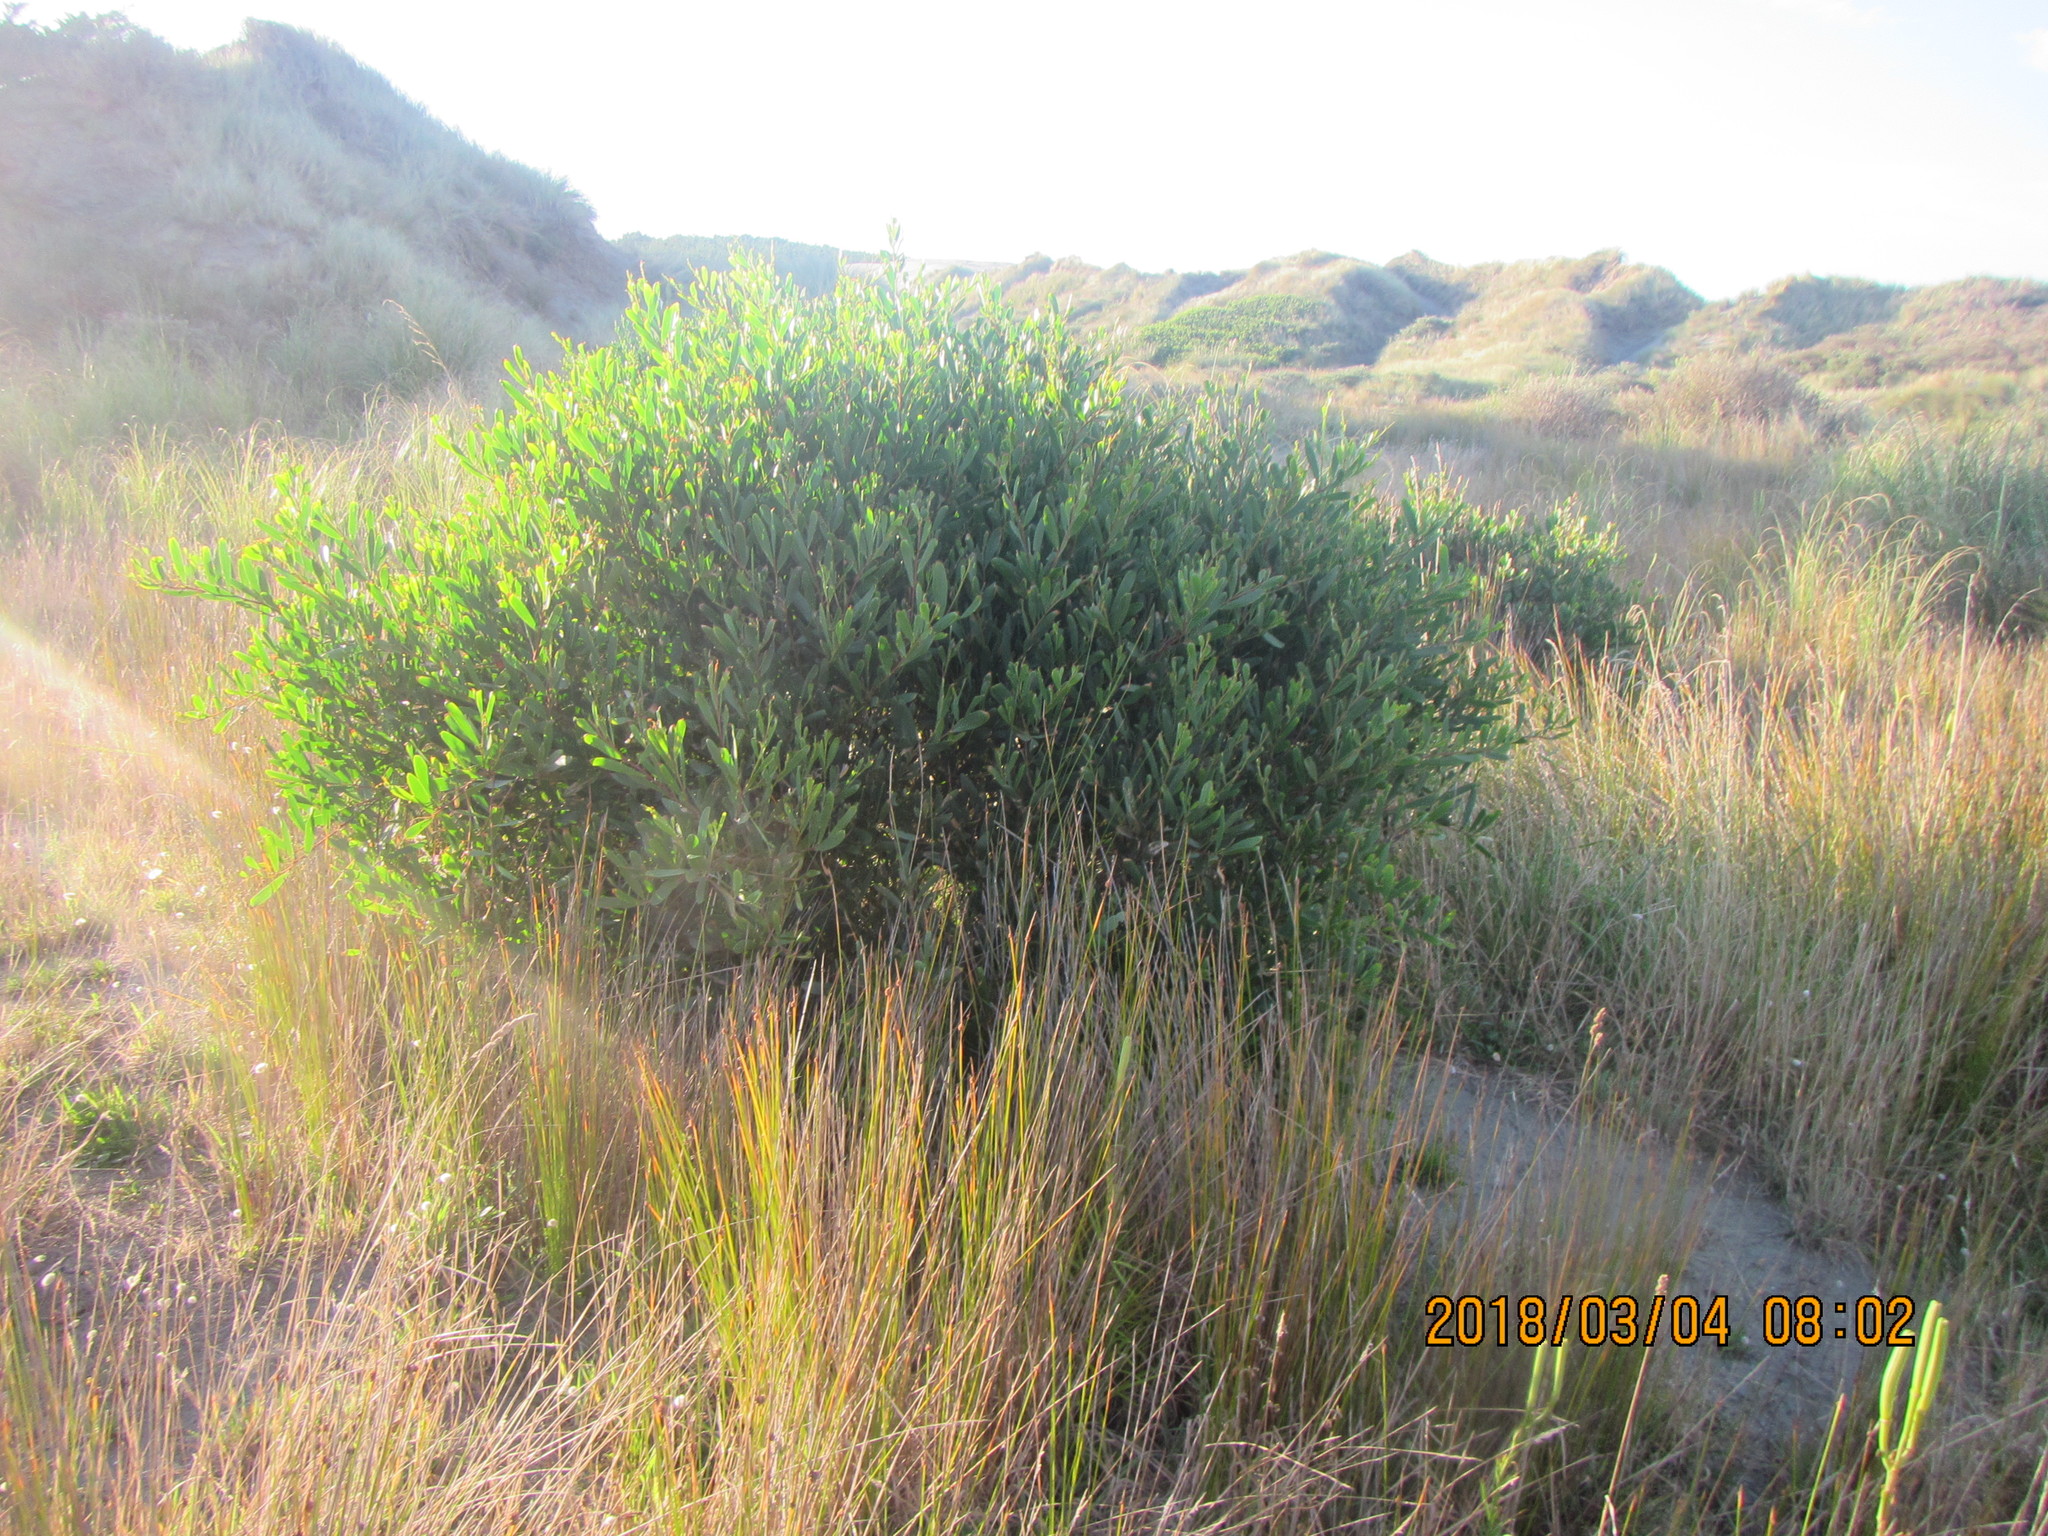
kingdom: Plantae
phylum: Tracheophyta
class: Magnoliopsida
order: Fabales
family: Fabaceae
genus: Acacia
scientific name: Acacia longifolia
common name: Sydney golden wattle
